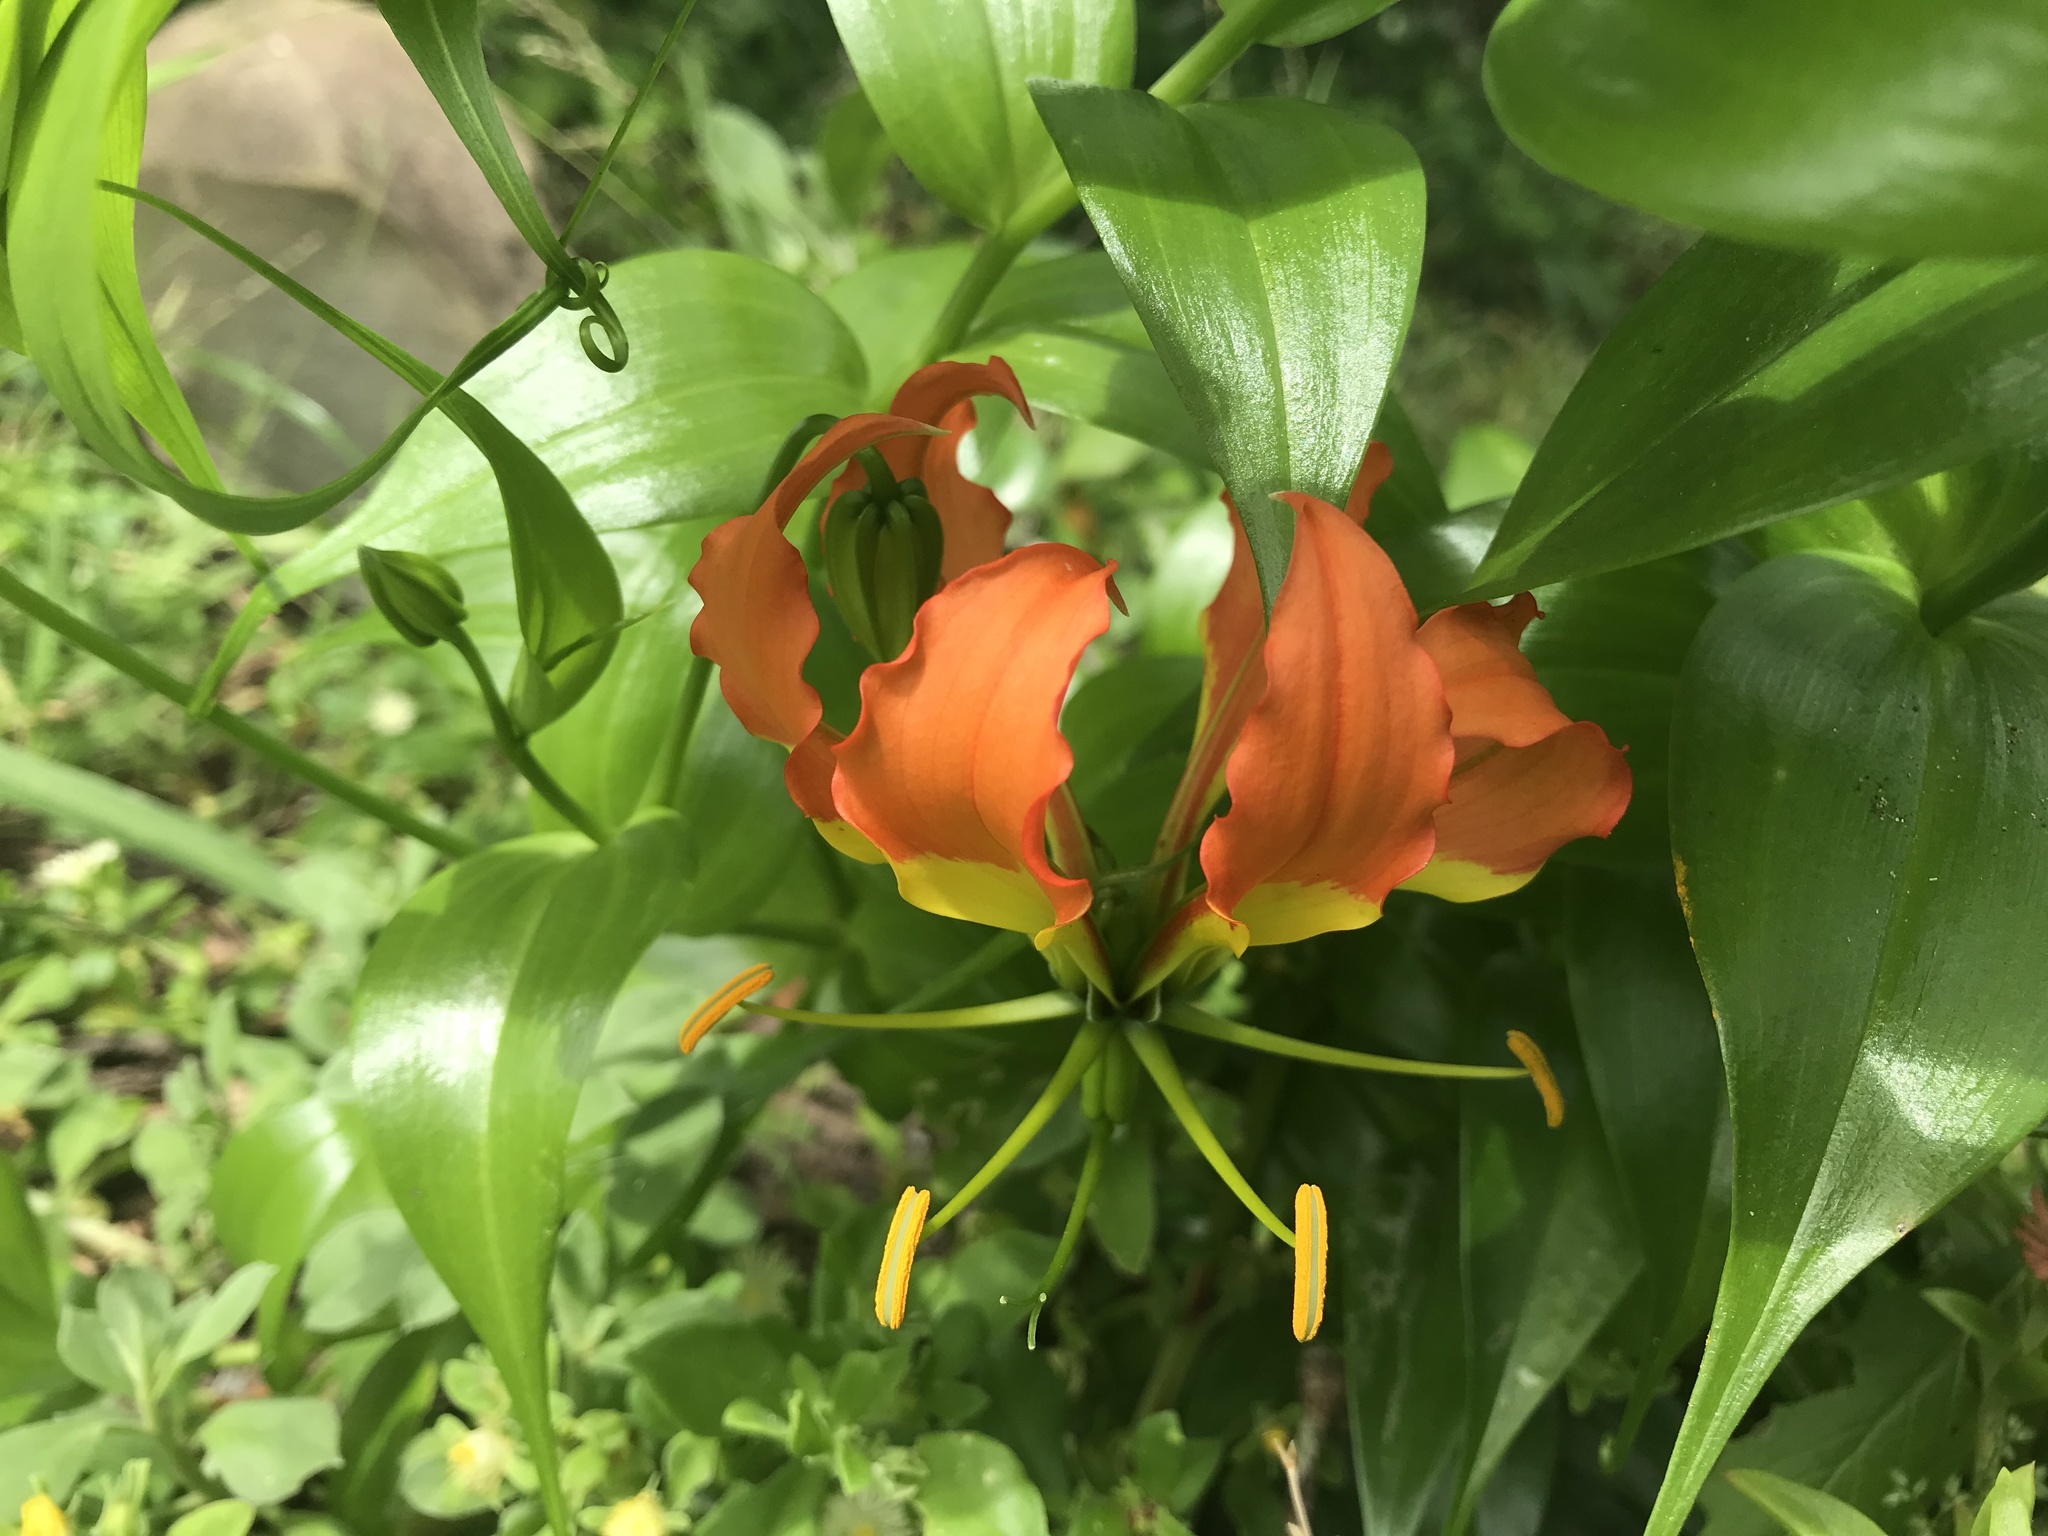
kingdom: Plantae
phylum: Tracheophyta
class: Liliopsida
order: Liliales
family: Colchicaceae
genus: Gloriosa
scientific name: Gloriosa superba
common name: Flame lily
